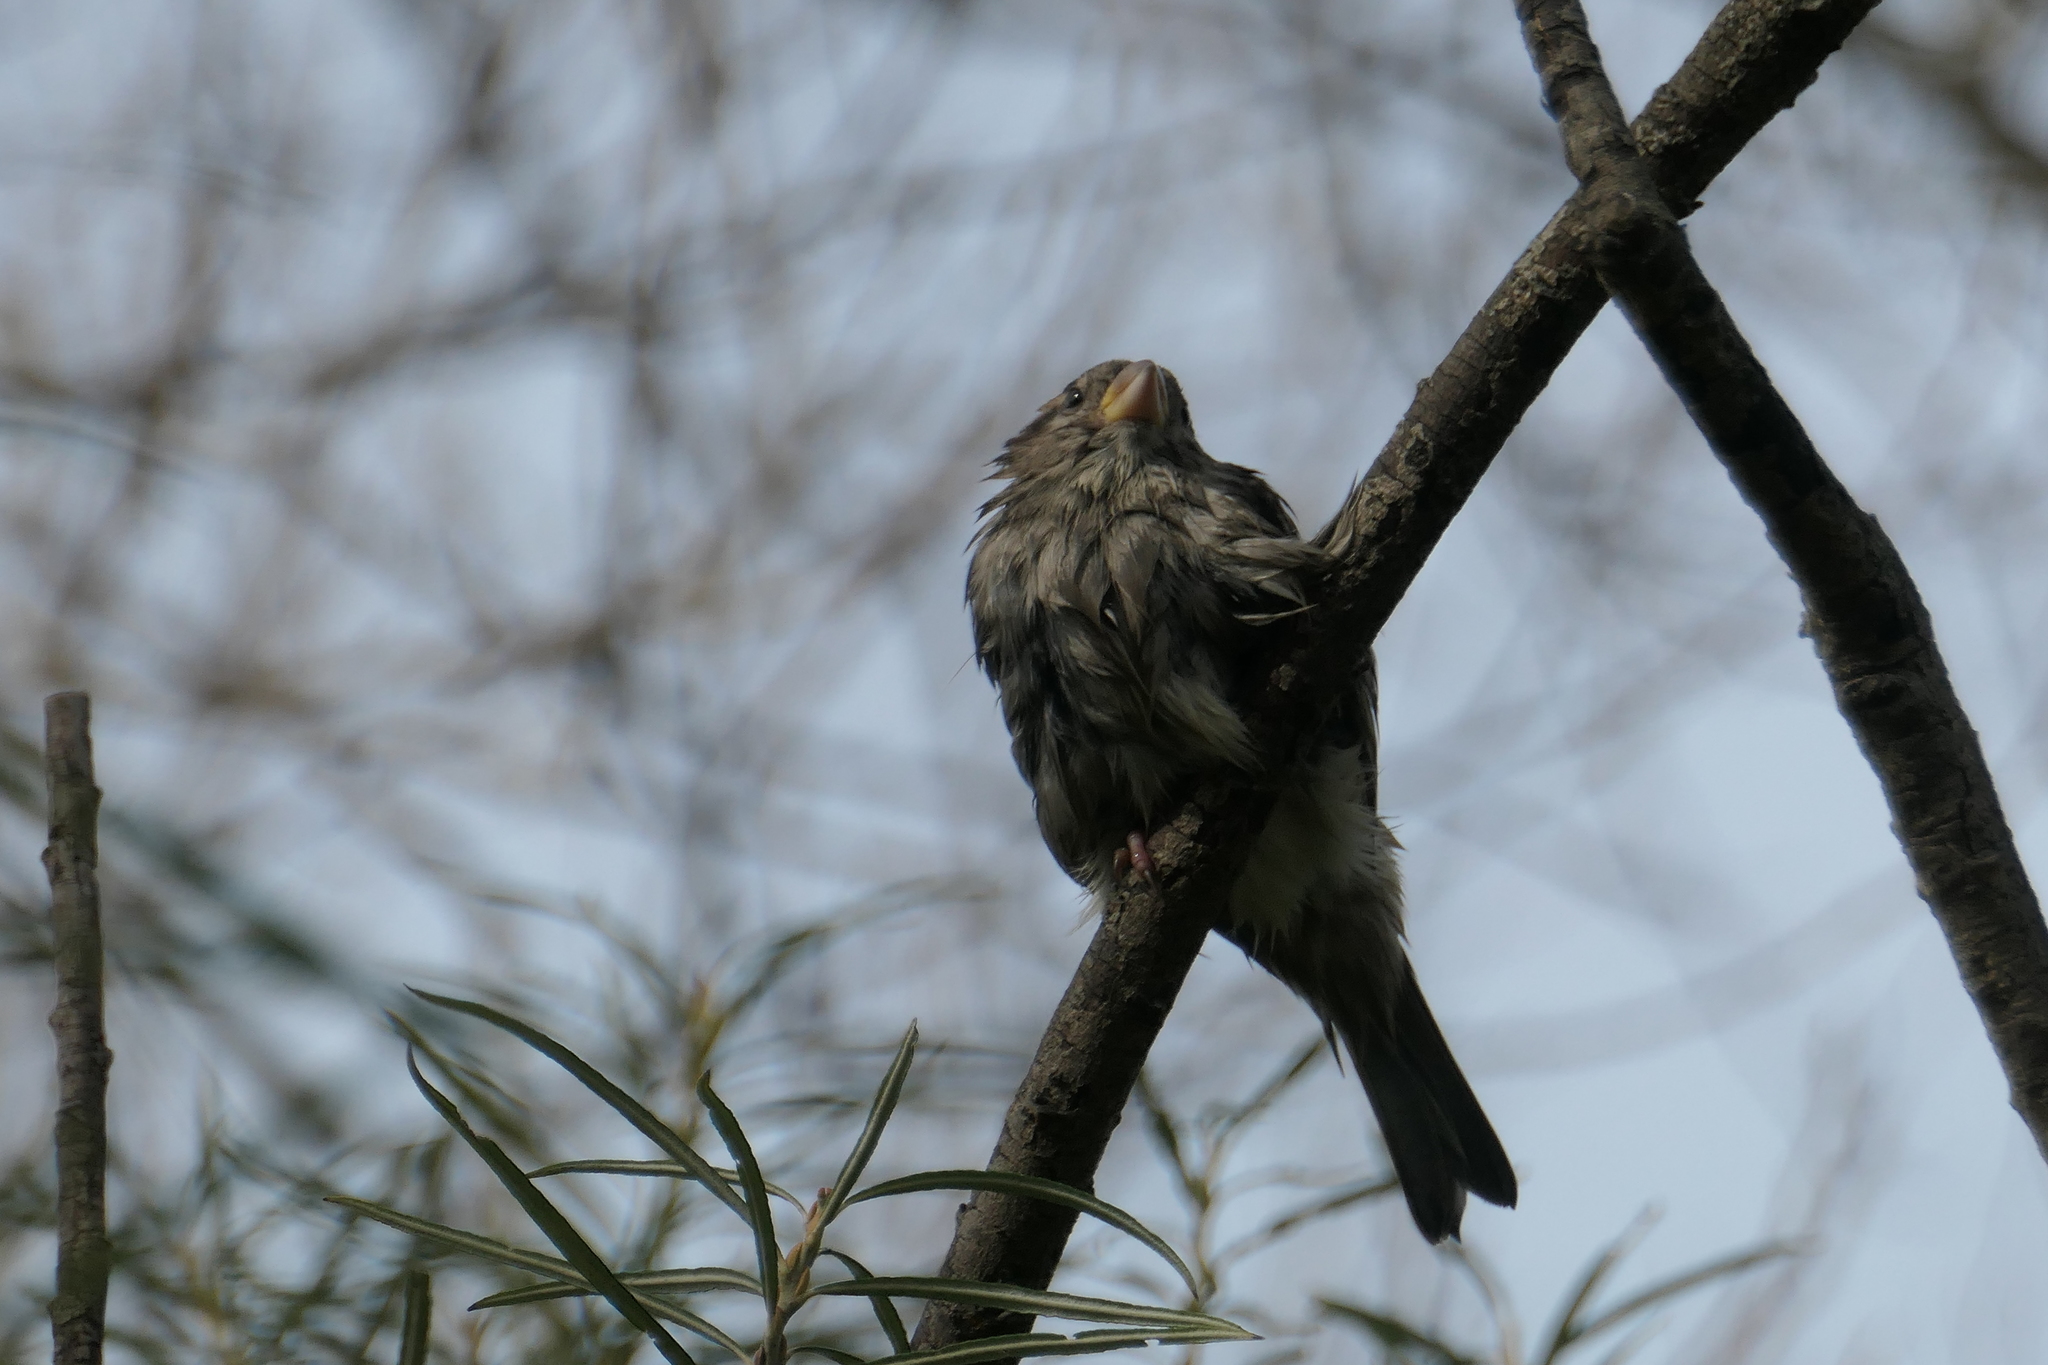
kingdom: Animalia
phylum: Chordata
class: Aves
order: Passeriformes
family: Passeridae
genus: Passer
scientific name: Passer domesticus
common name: House sparrow
